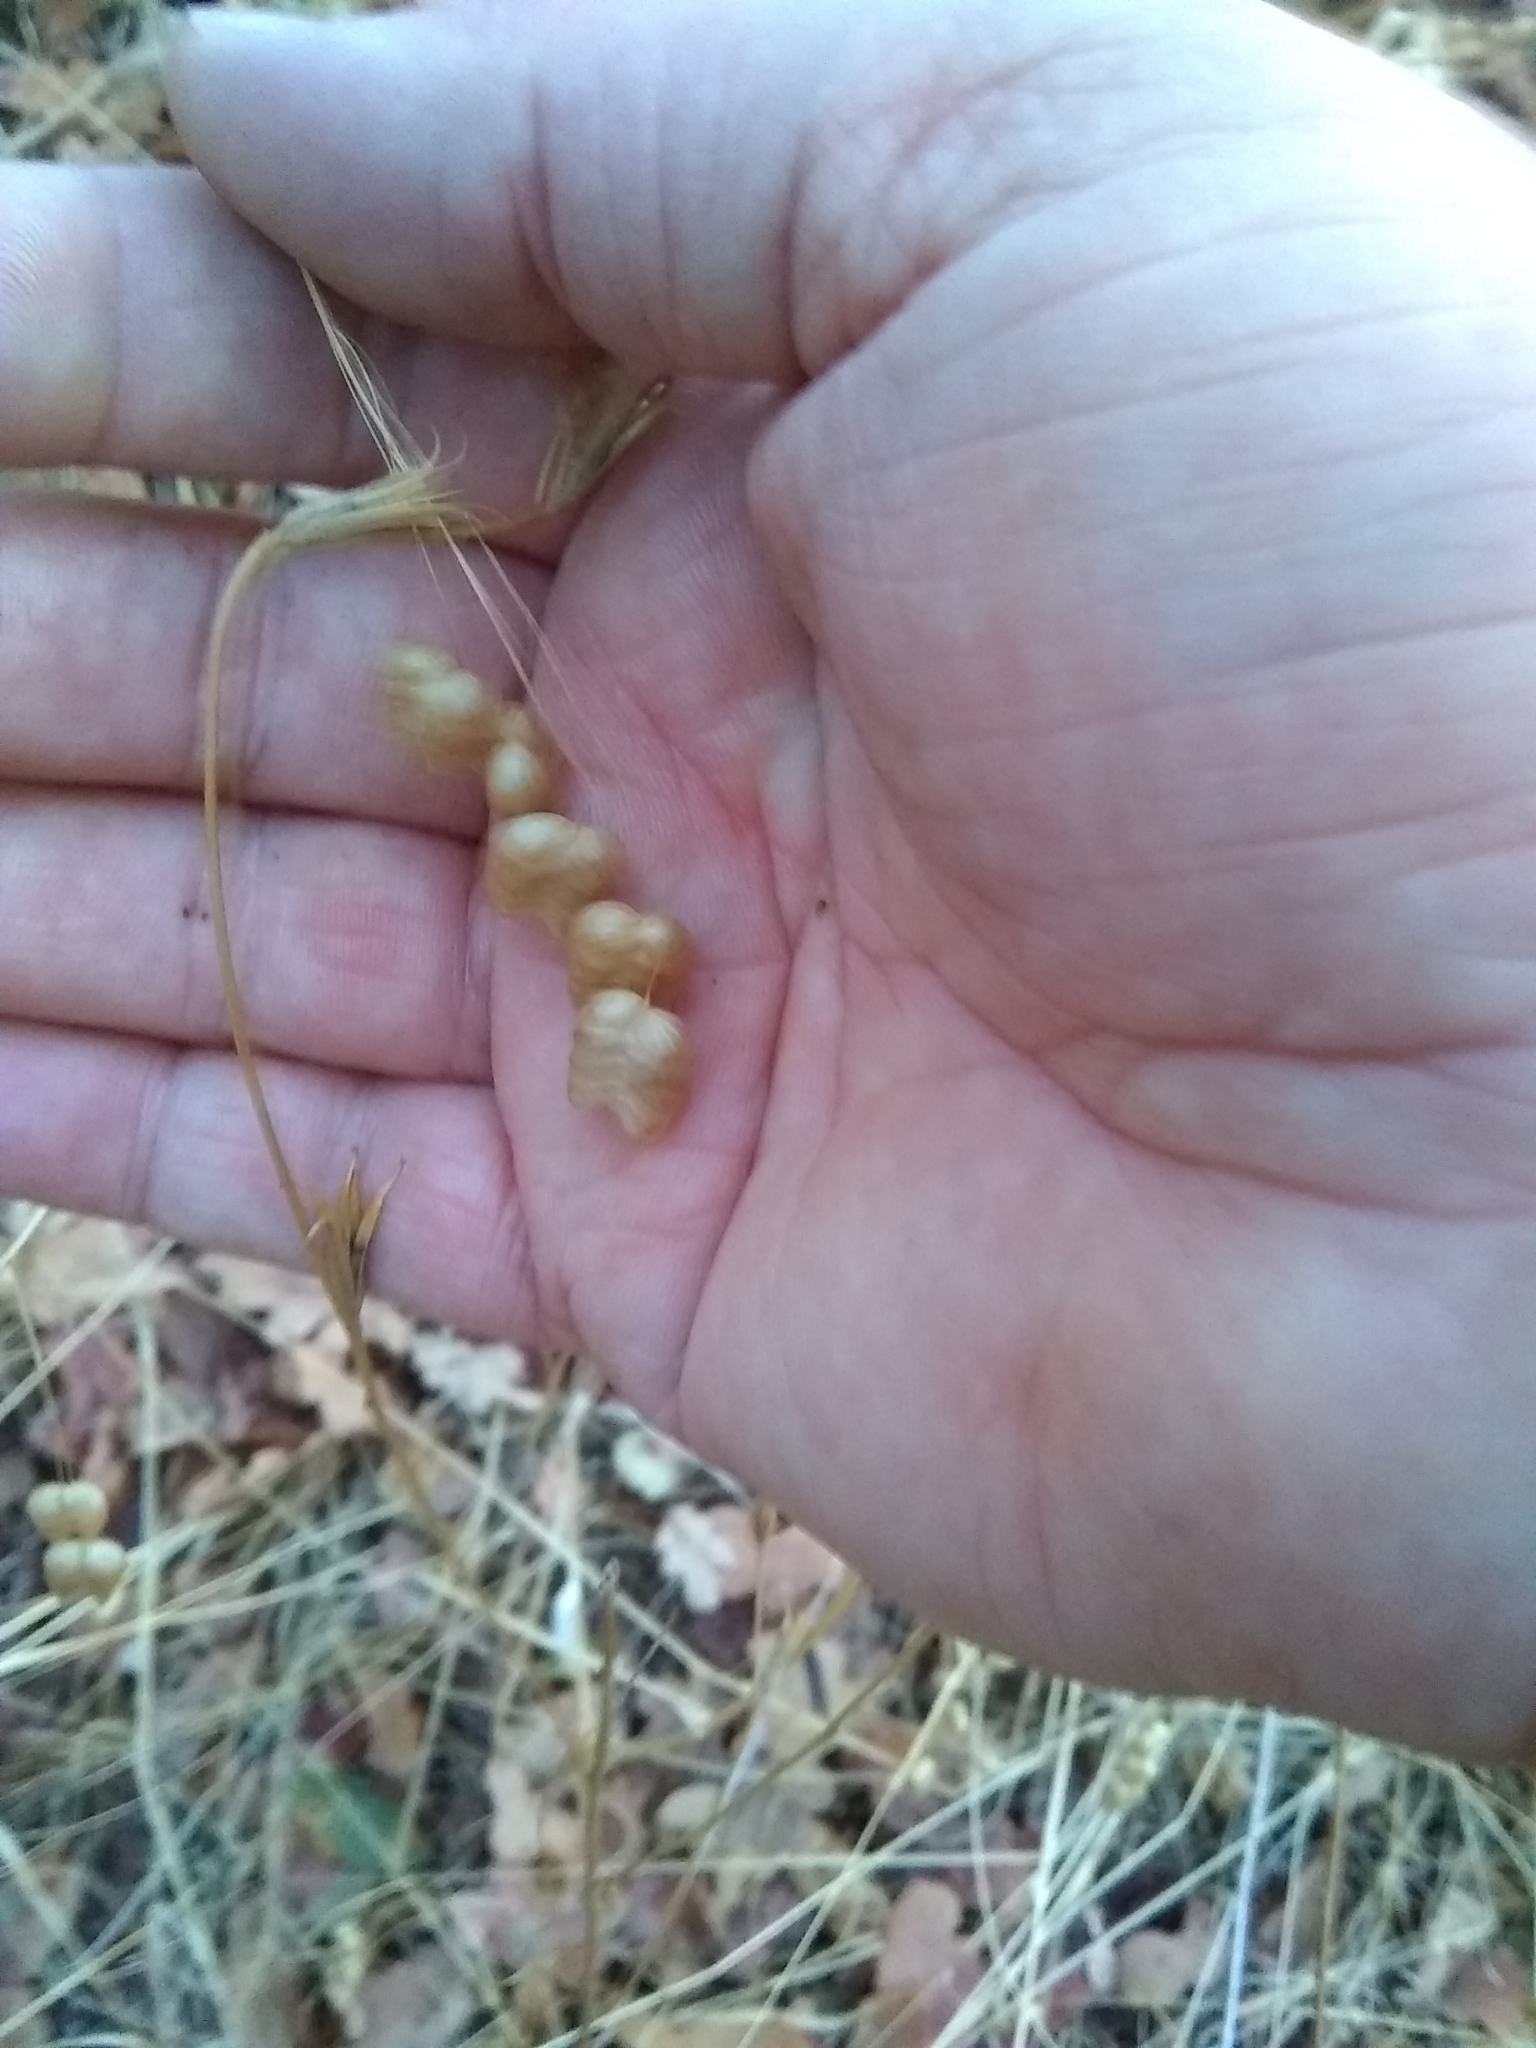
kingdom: Plantae
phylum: Tracheophyta
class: Liliopsida
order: Poales
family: Poaceae
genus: Briza
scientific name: Briza maxima
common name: Big quakinggrass
